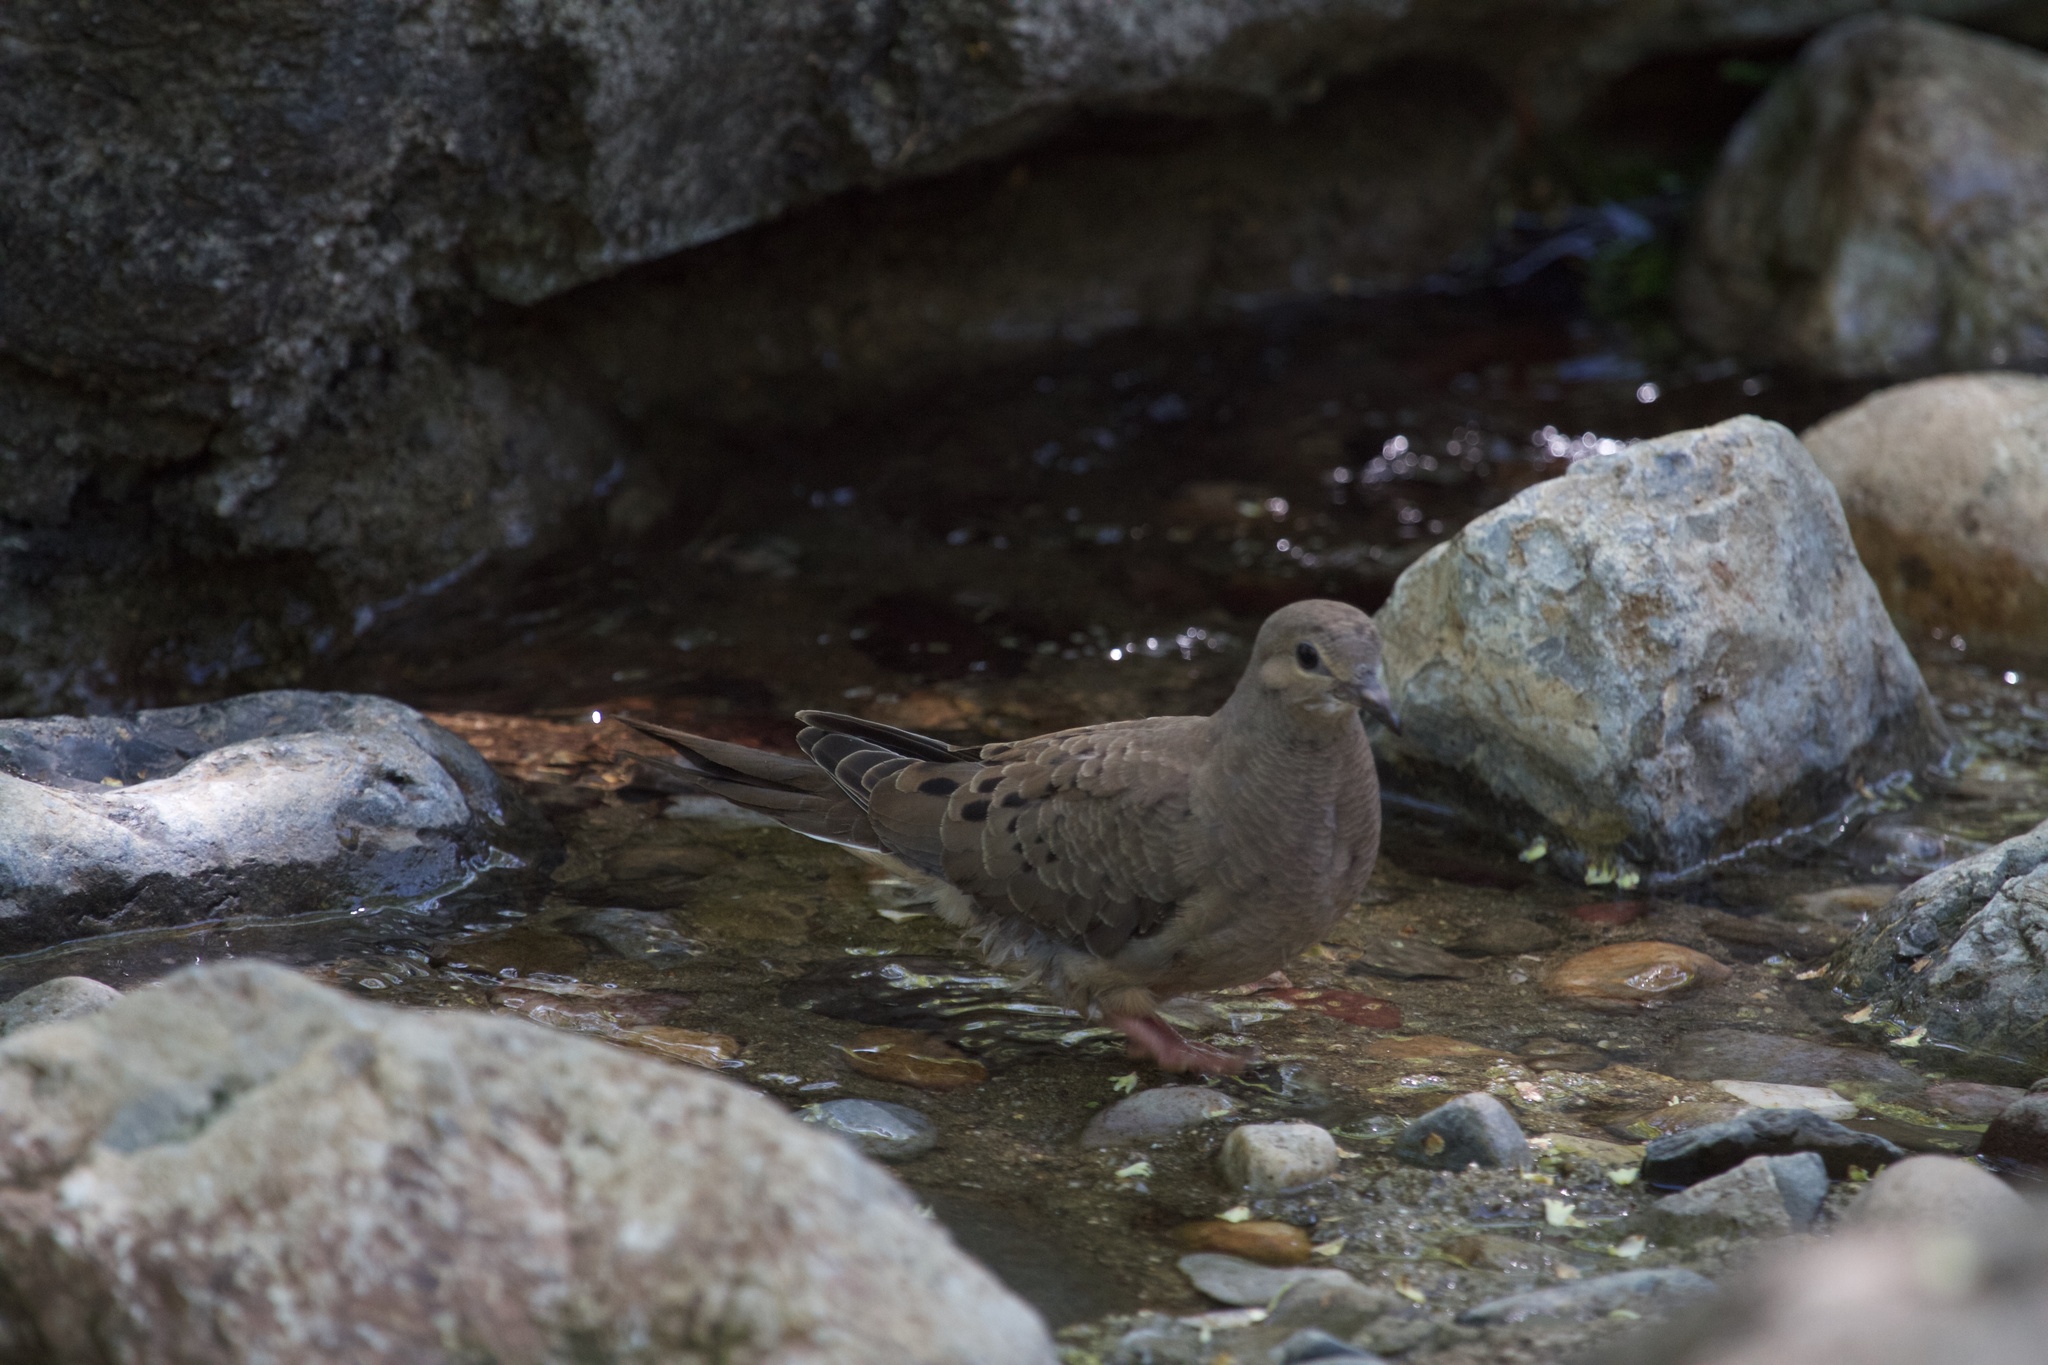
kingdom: Animalia
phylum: Chordata
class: Aves
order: Columbiformes
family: Columbidae
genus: Zenaida
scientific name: Zenaida macroura
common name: Mourning dove
